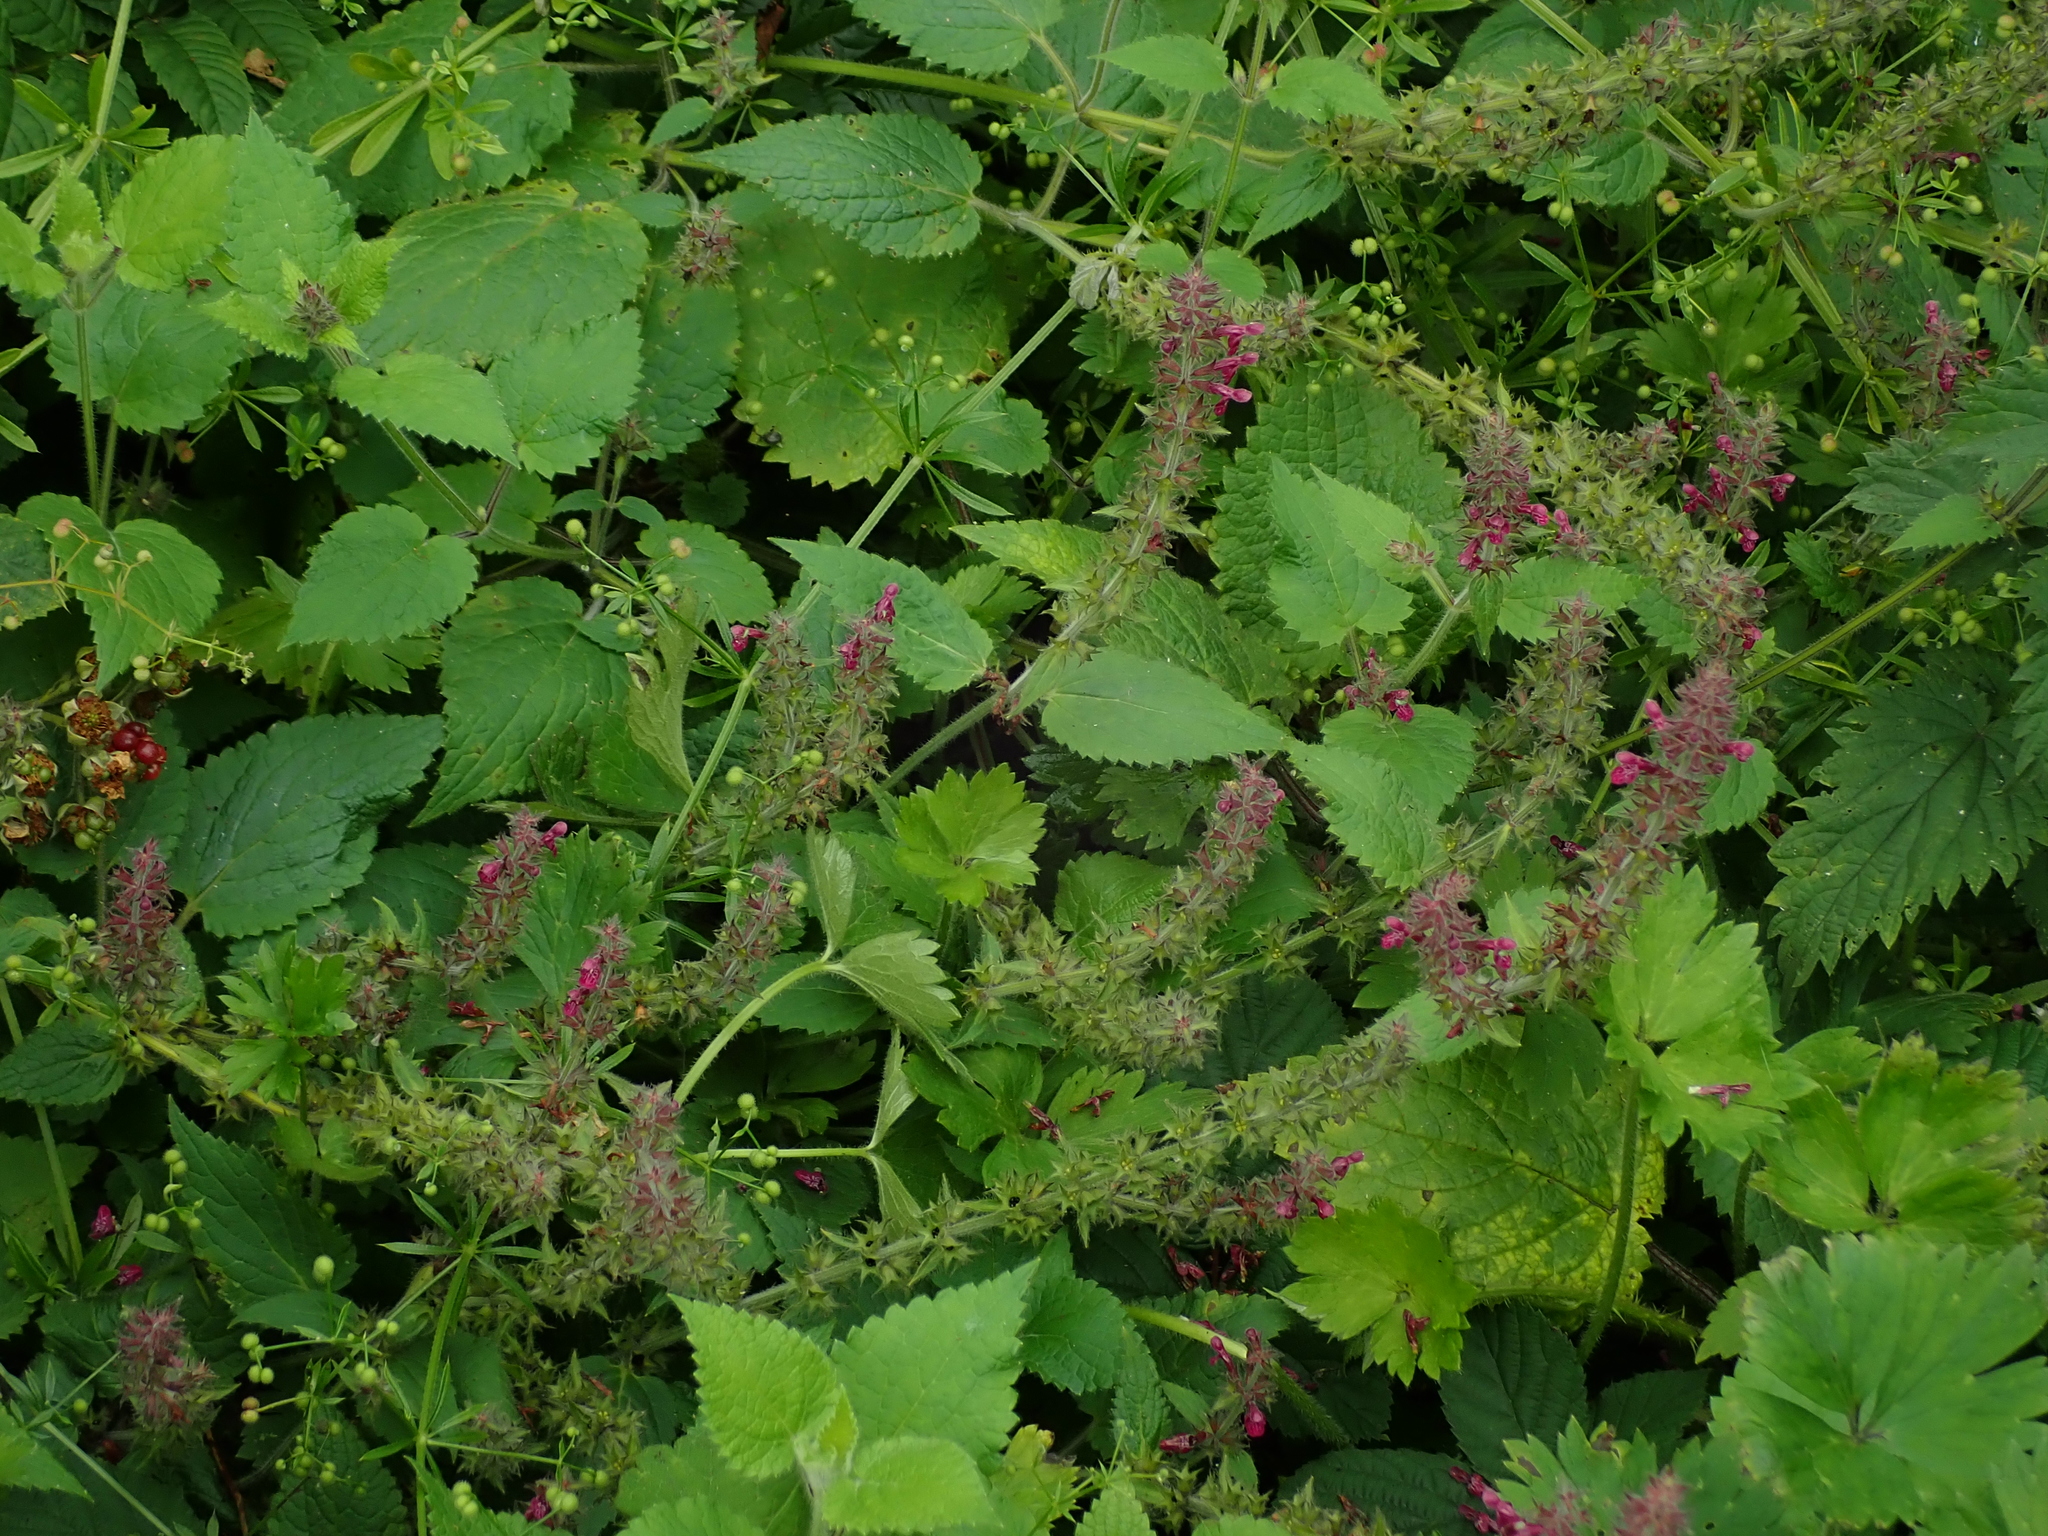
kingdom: Plantae
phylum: Tracheophyta
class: Magnoliopsida
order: Lamiales
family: Lamiaceae
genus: Stachys
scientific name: Stachys sylvatica
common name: Hedge woundwort
